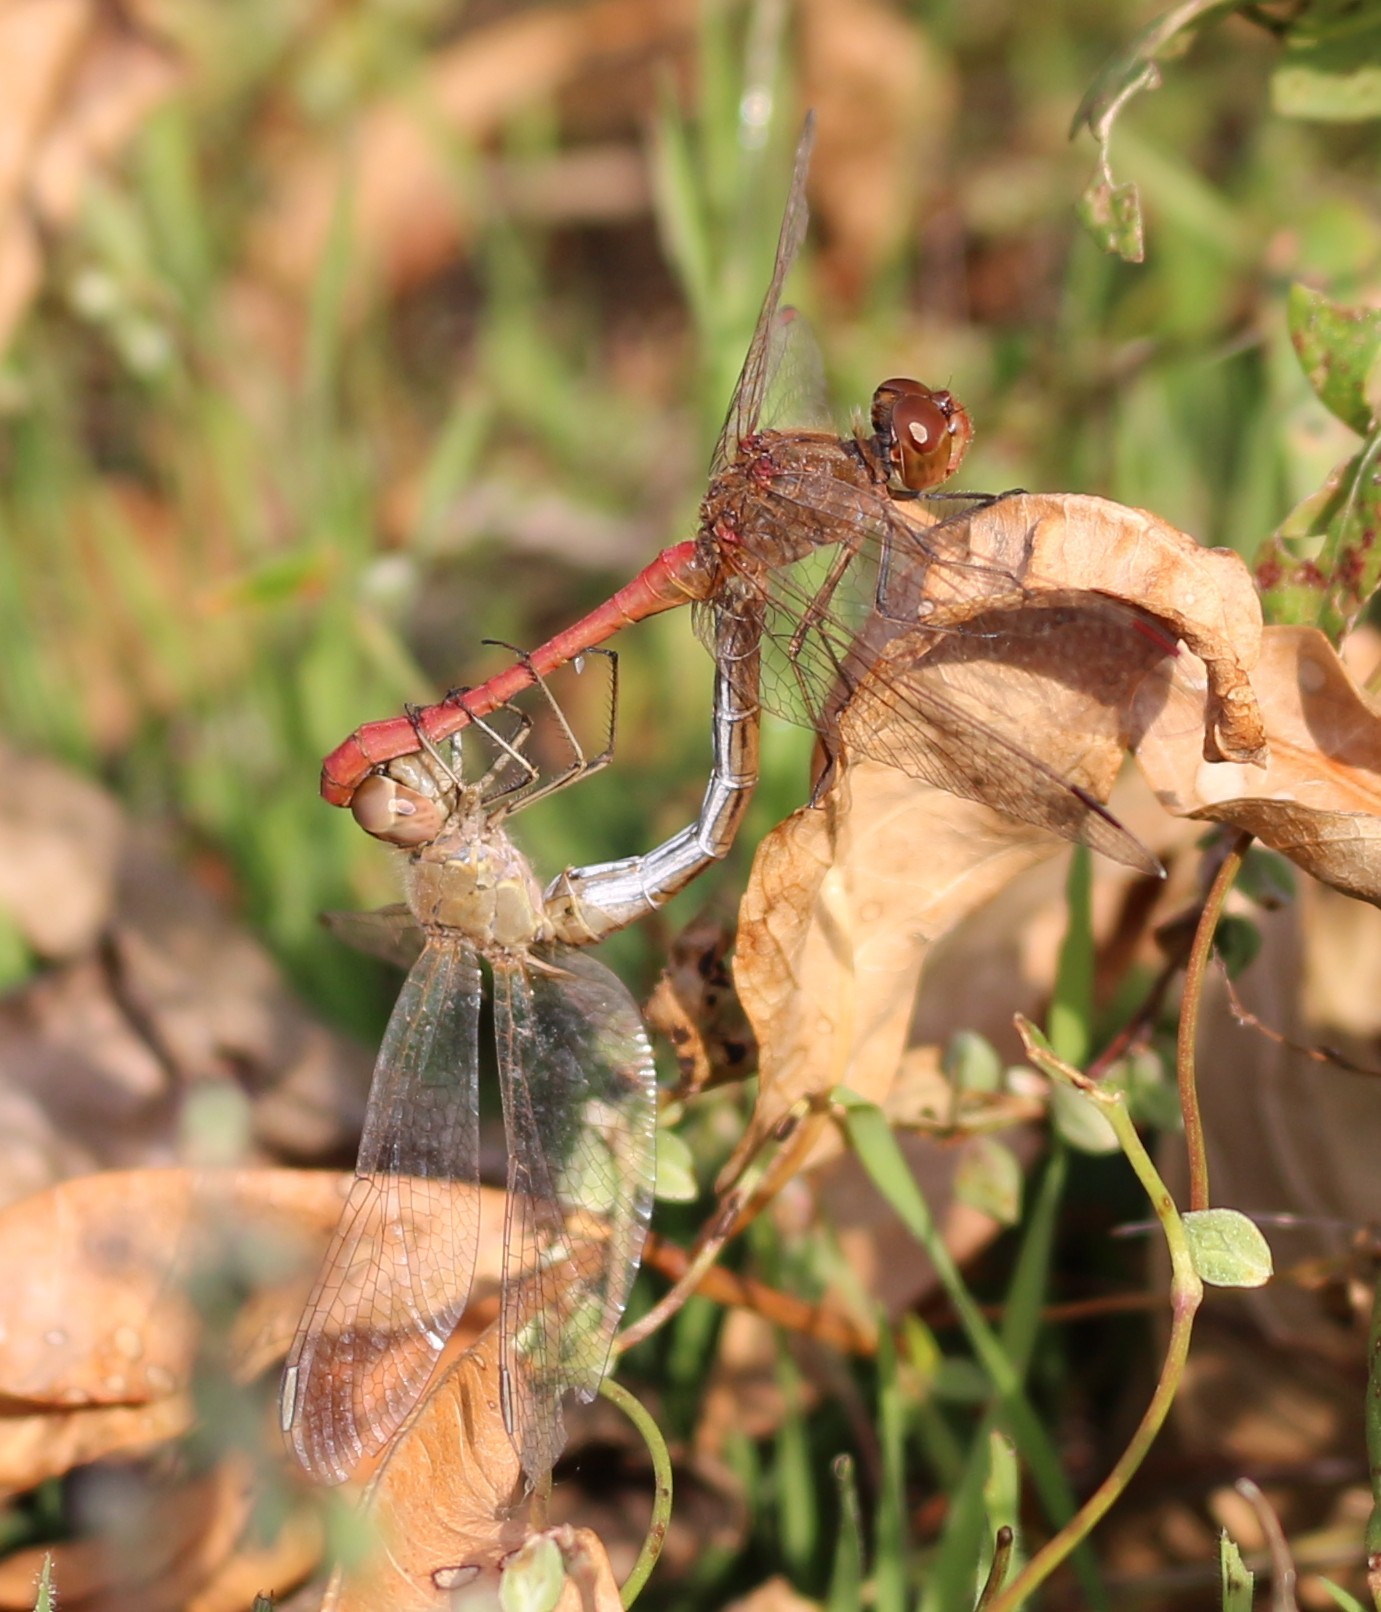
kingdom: Animalia
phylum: Arthropoda
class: Insecta
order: Odonata
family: Libellulidae
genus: Sympetrum
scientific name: Sympetrum meridionale
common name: Southern darter
